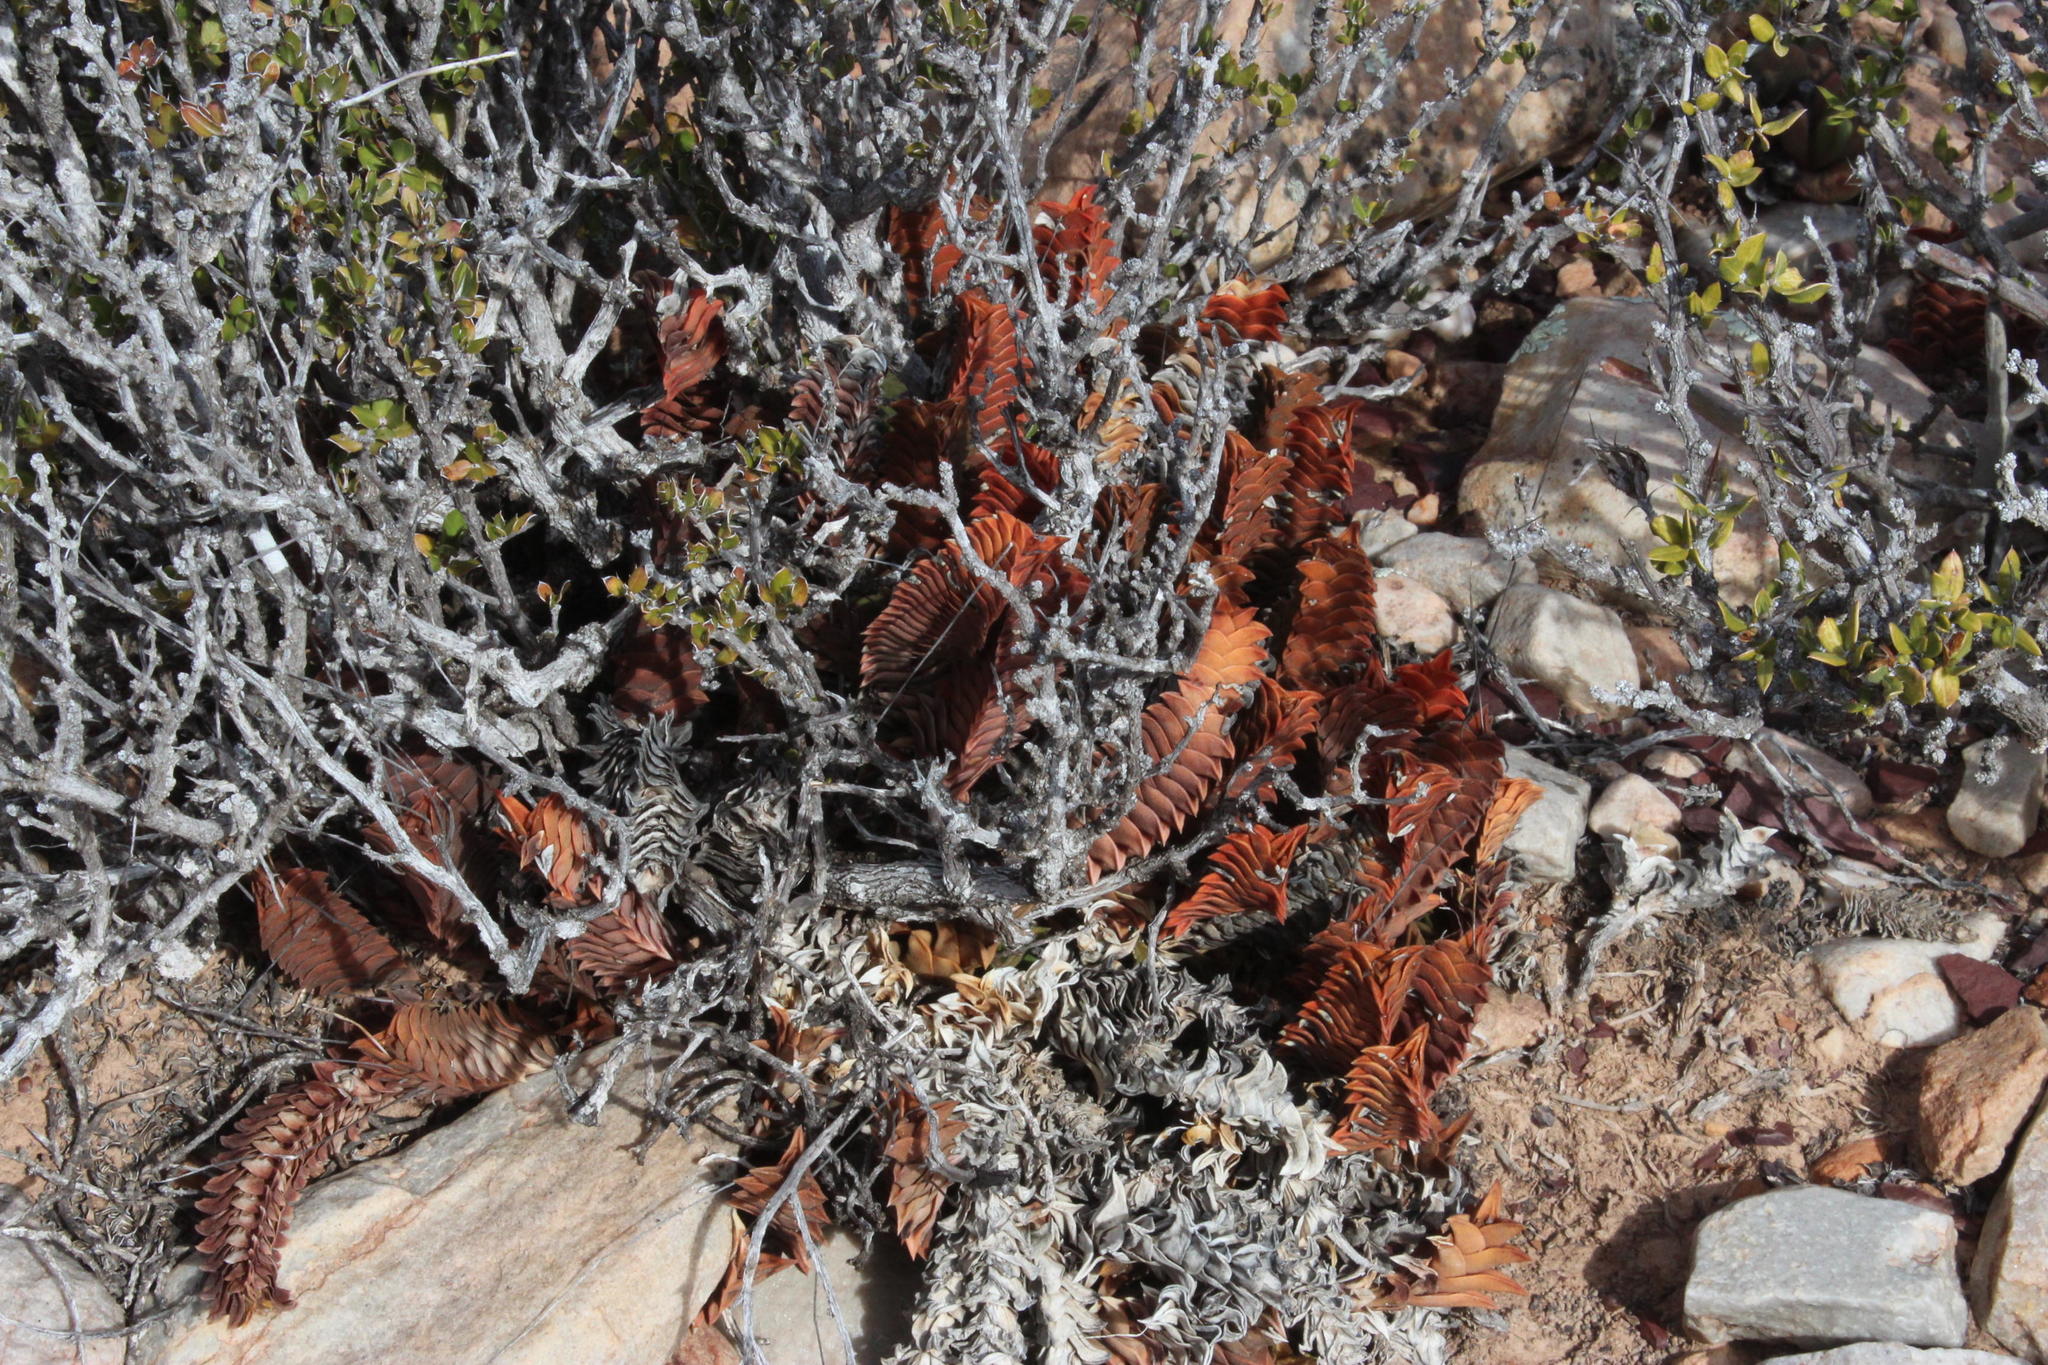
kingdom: Plantae
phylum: Tracheophyta
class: Liliopsida
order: Asparagales
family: Asphodelaceae
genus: Haworthiopsis
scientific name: Haworthiopsis viscosa
